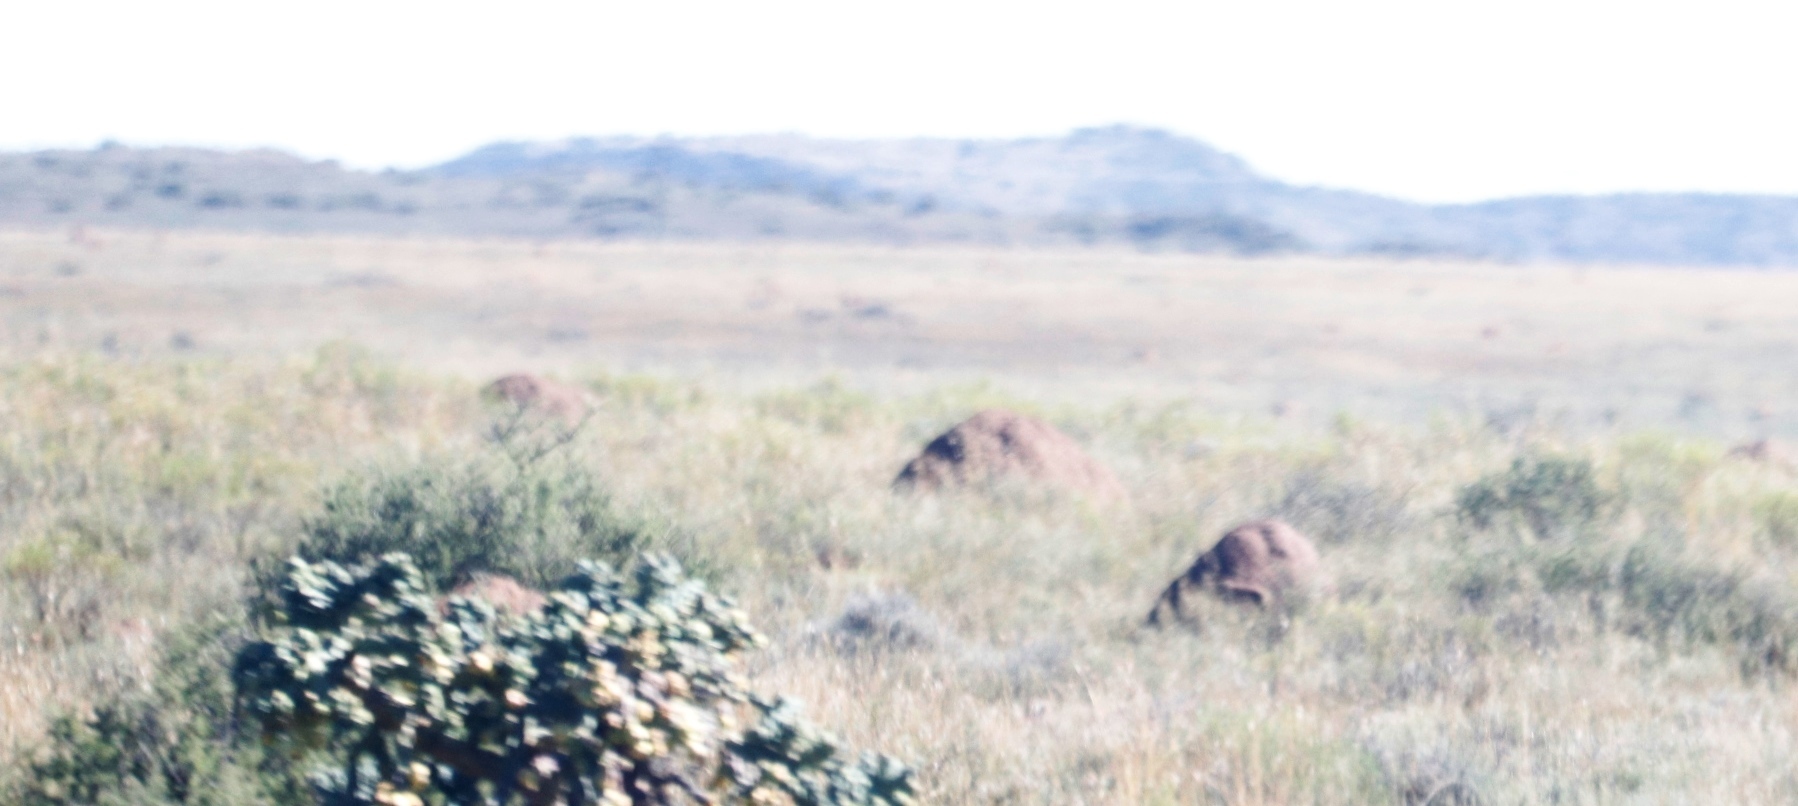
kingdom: Plantae
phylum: Tracheophyta
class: Magnoliopsida
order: Caryophyllales
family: Cactaceae
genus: Cylindropuntia
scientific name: Cylindropuntia imbricata
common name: Candelabrum cactus
